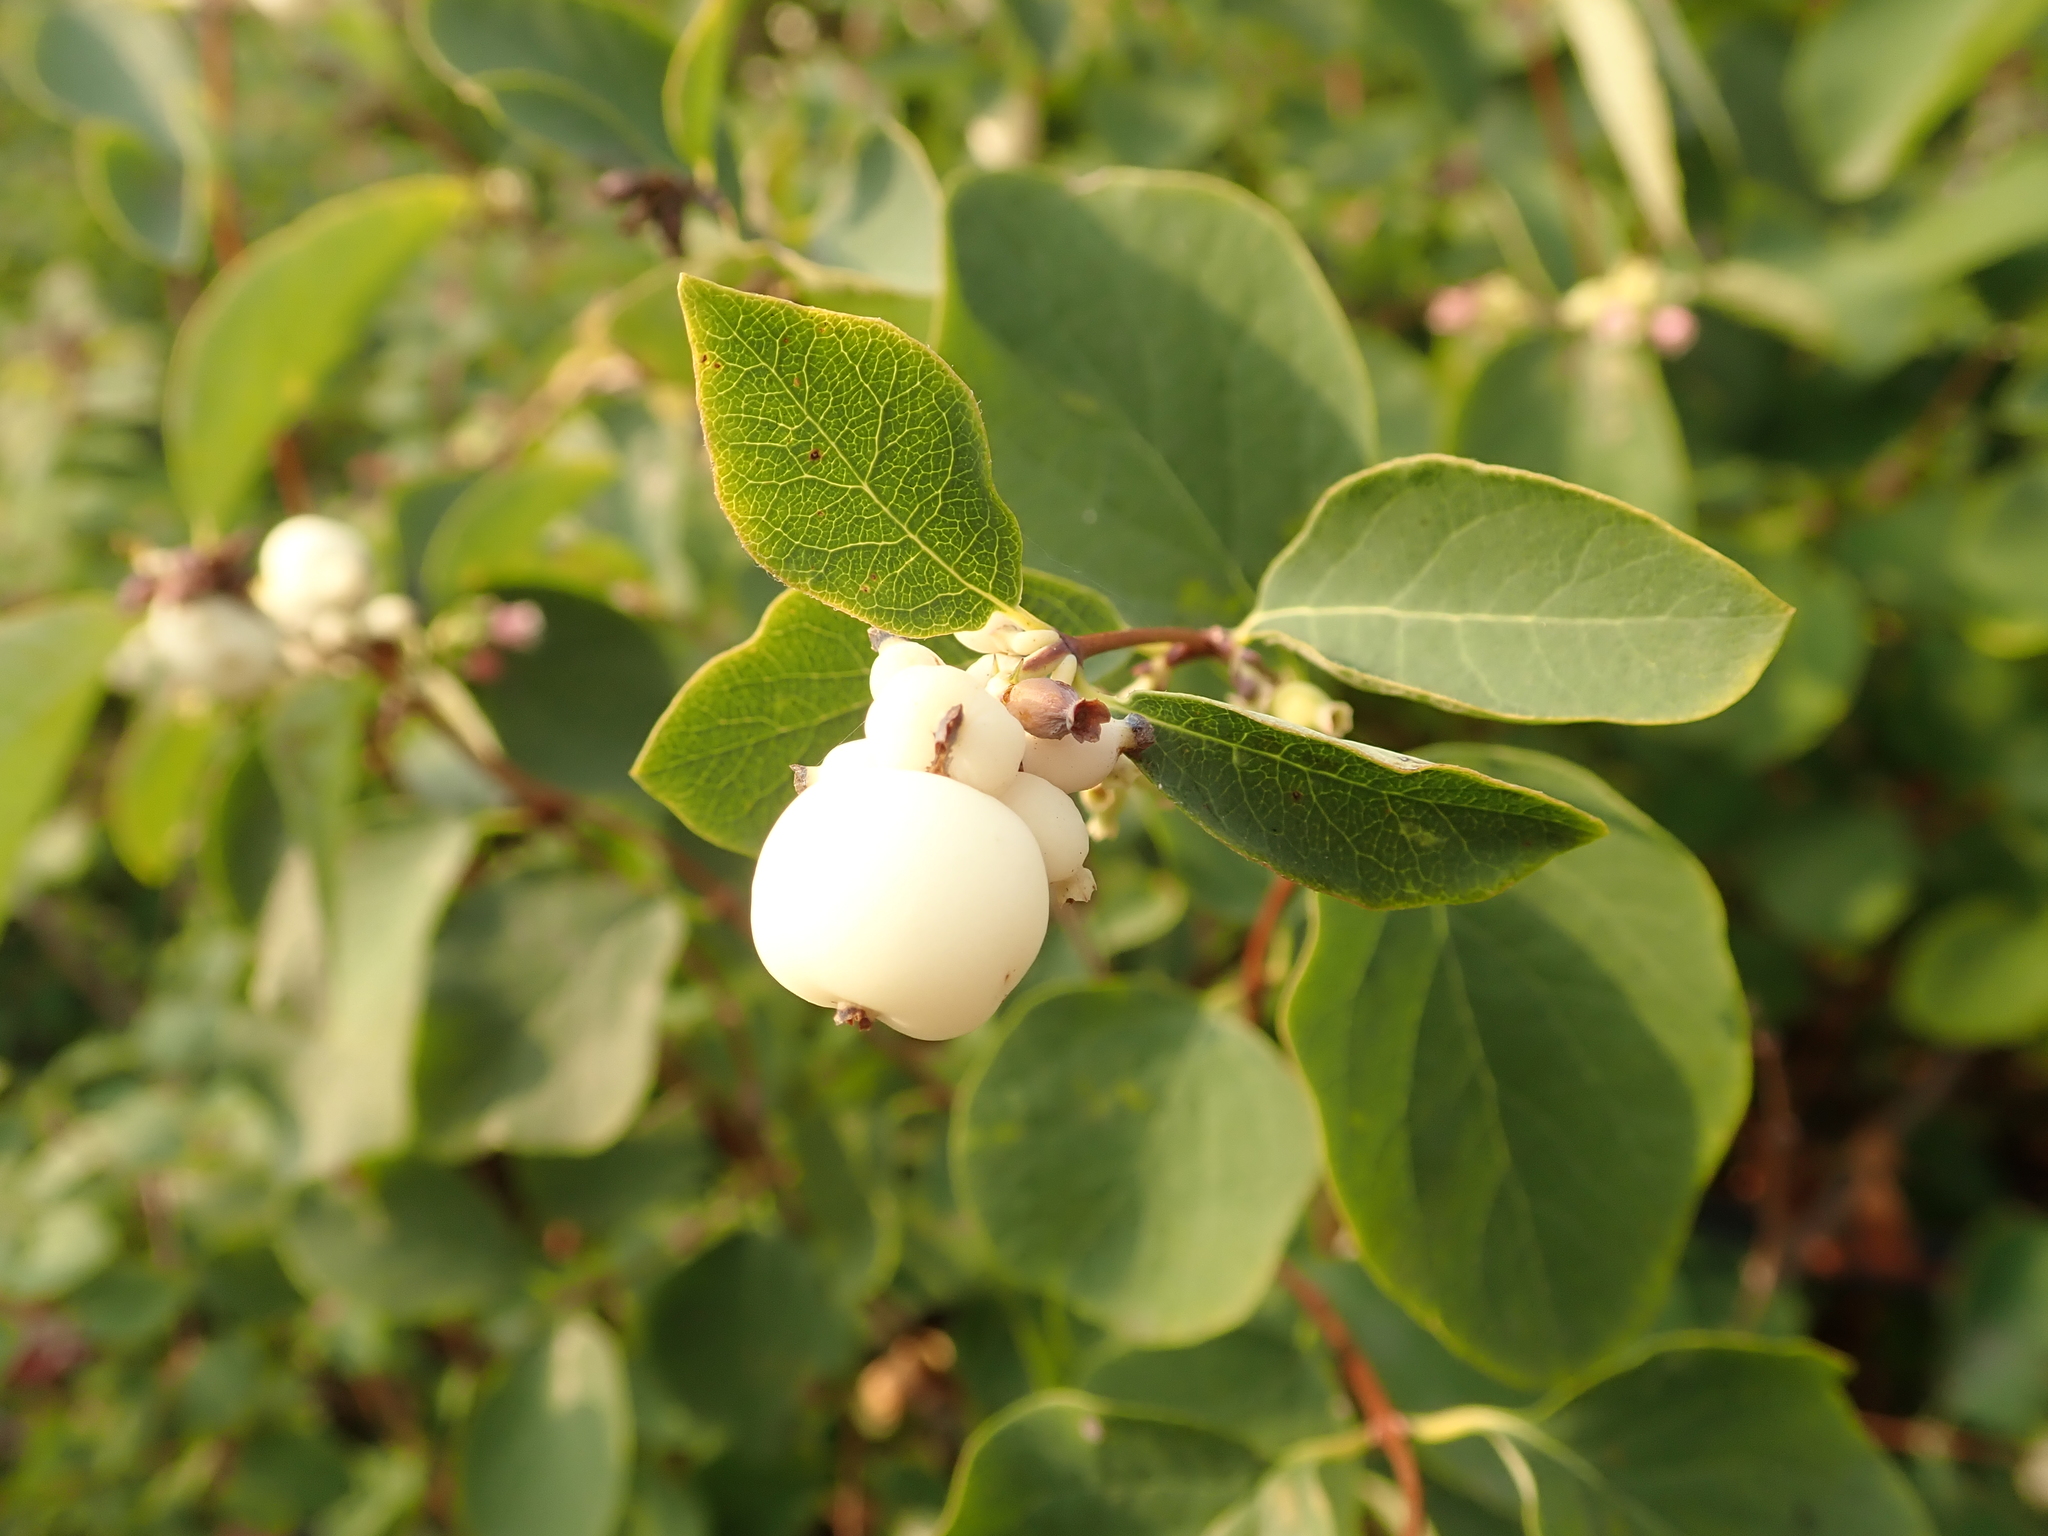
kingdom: Plantae
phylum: Tracheophyta
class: Magnoliopsida
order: Dipsacales
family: Caprifoliaceae
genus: Symphoricarpos
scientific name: Symphoricarpos albus
